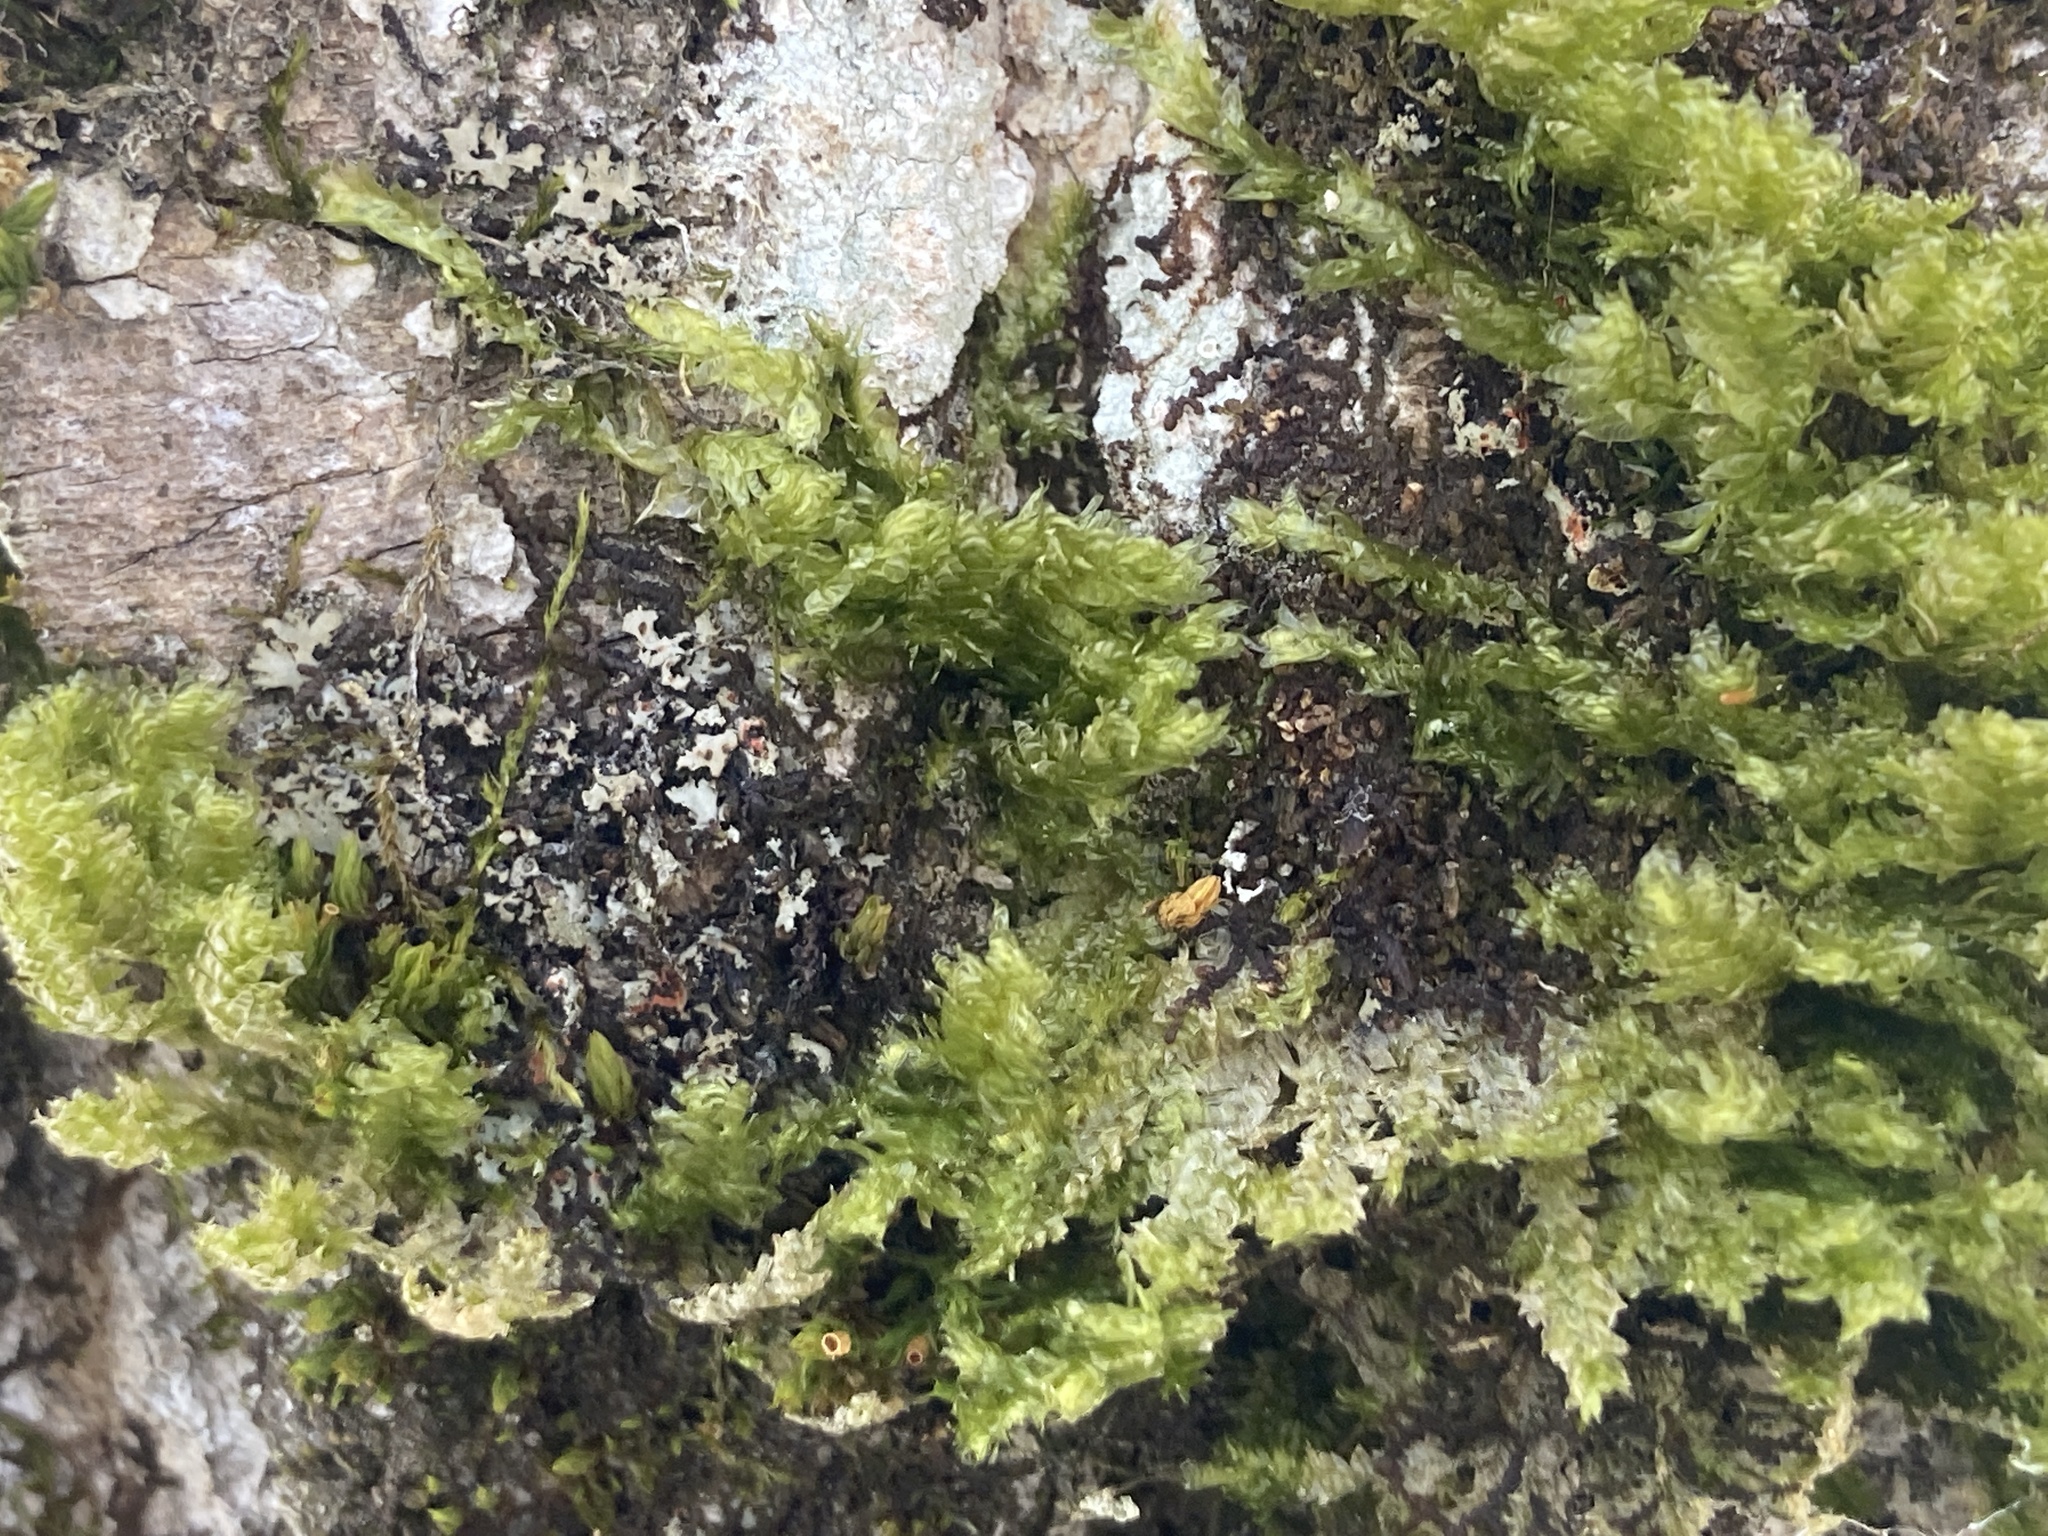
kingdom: Plantae
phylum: Bryophyta
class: Bryopsida
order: Hypnales
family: Neckeraceae
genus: Neckera
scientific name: Neckera pennata
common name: Feathery neckera
